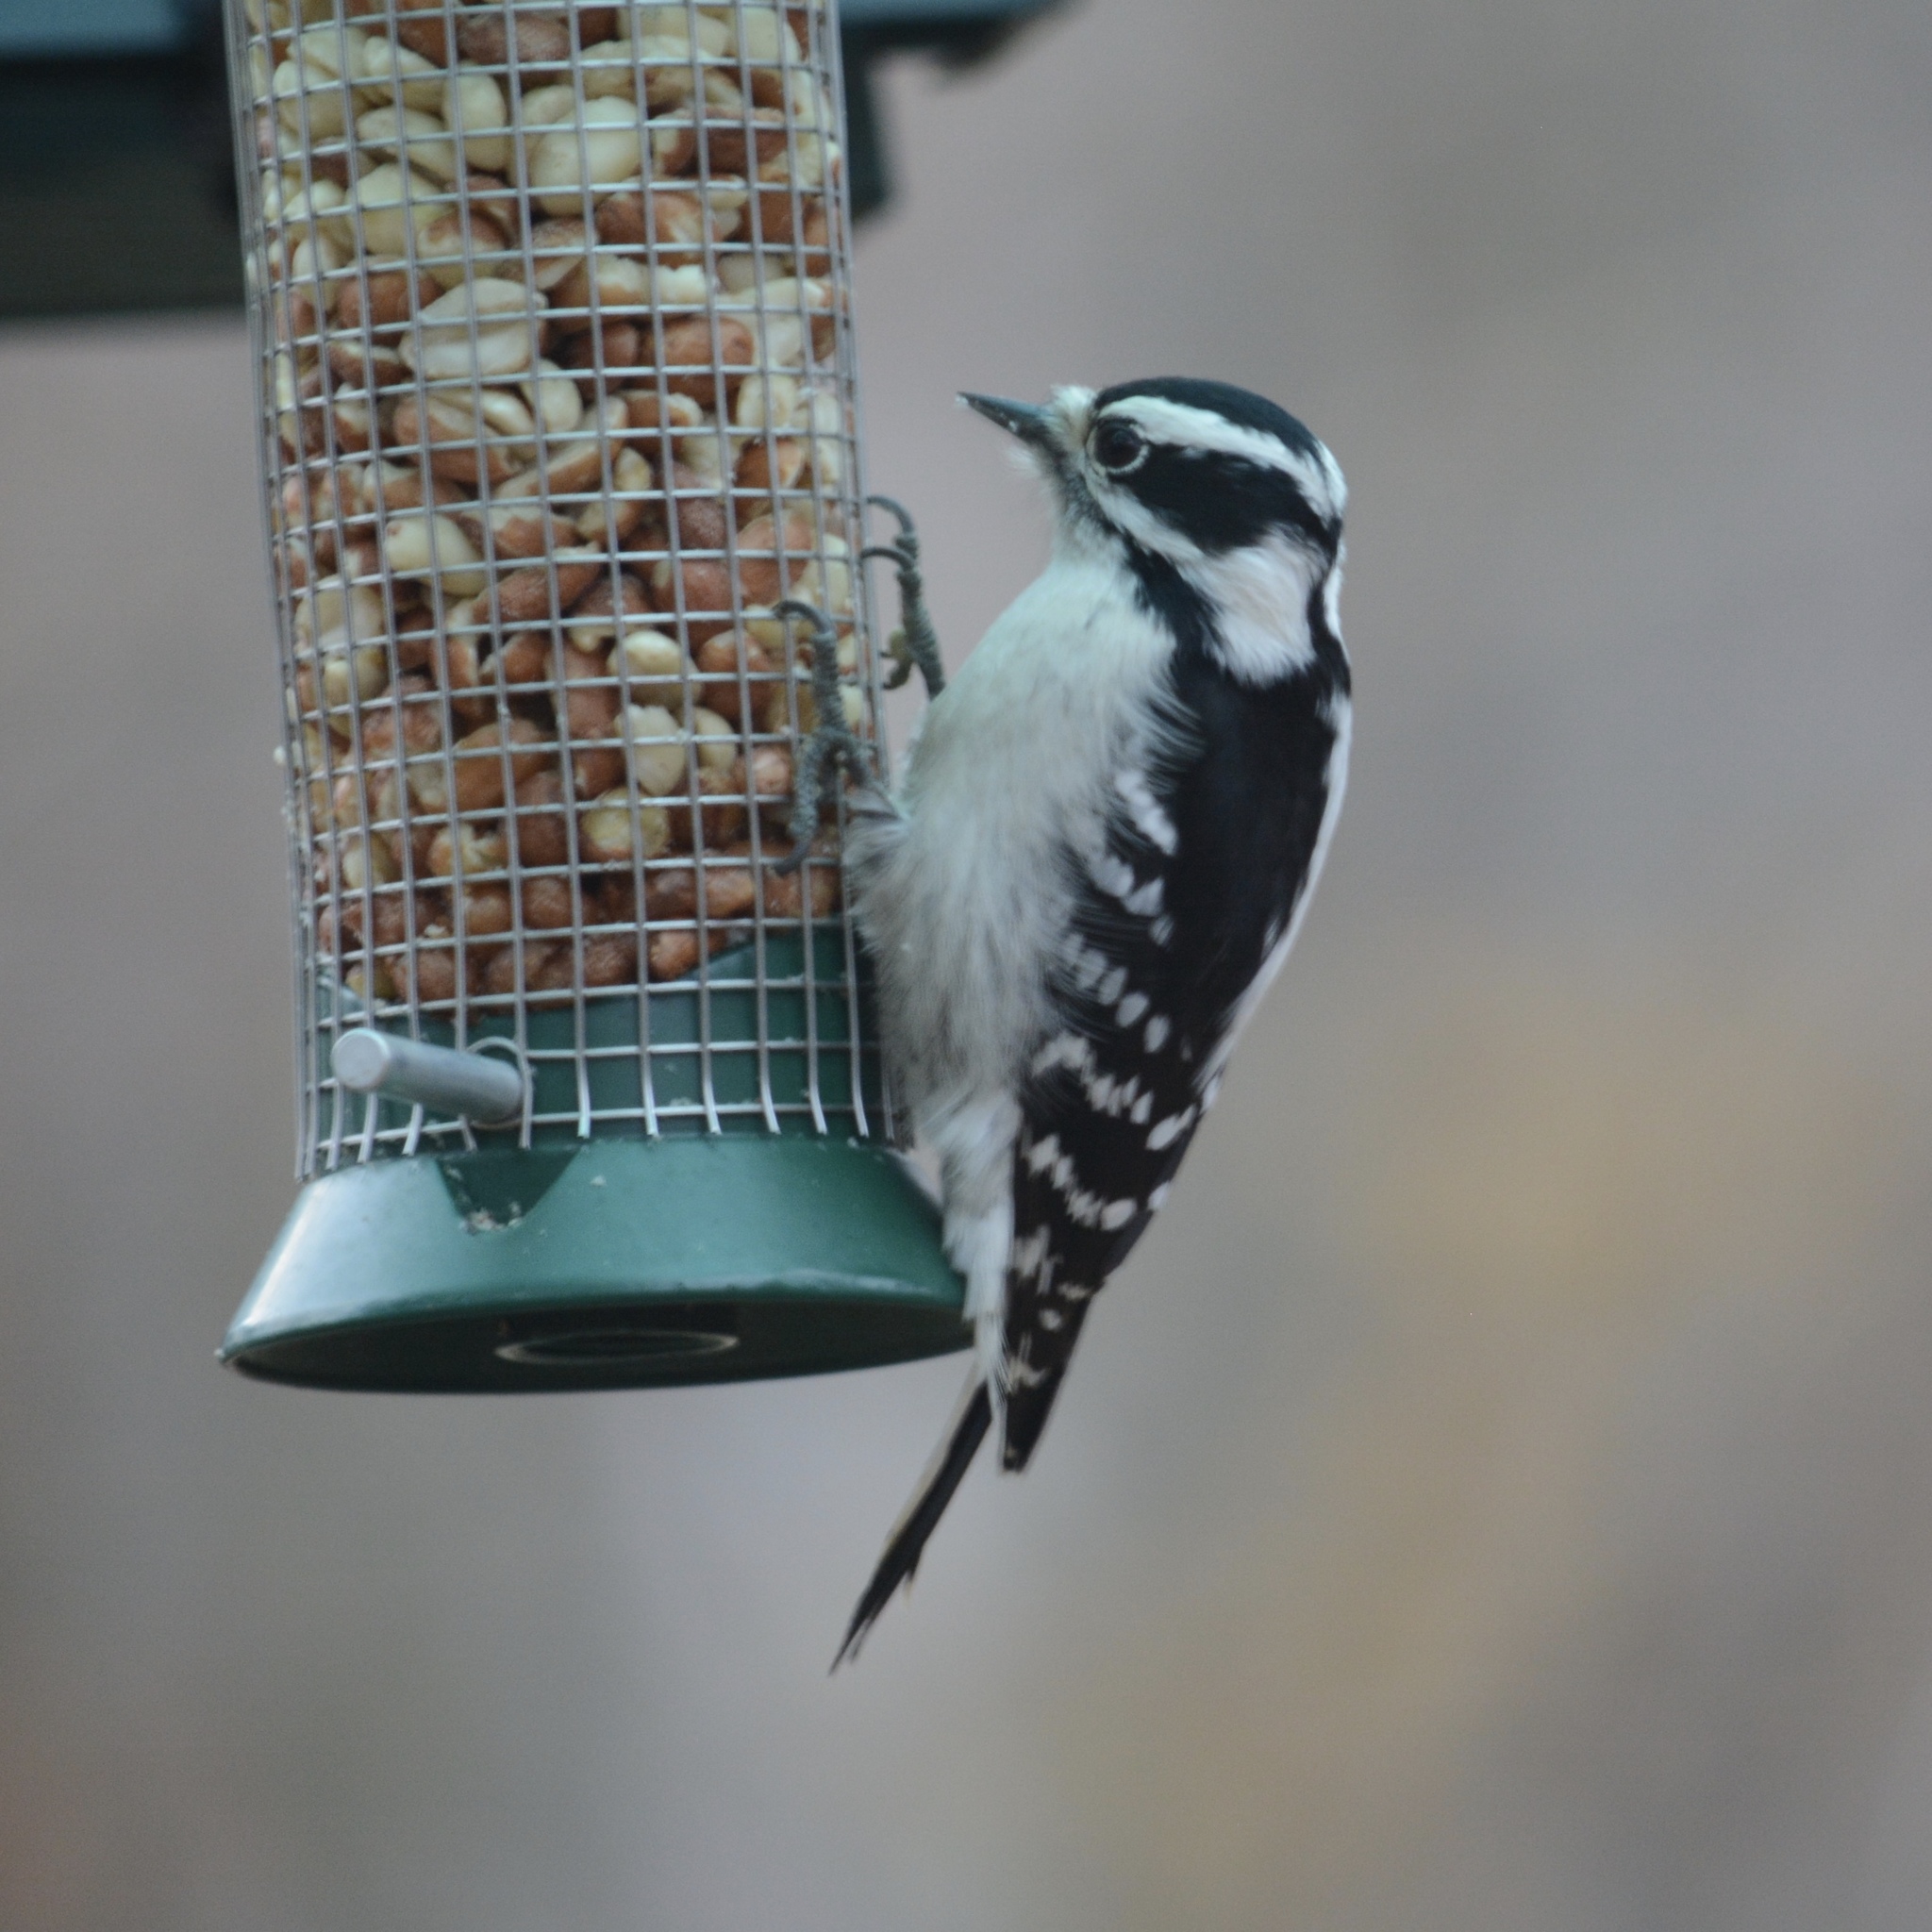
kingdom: Animalia
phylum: Chordata
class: Aves
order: Piciformes
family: Picidae
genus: Dryobates
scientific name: Dryobates pubescens
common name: Downy woodpecker
